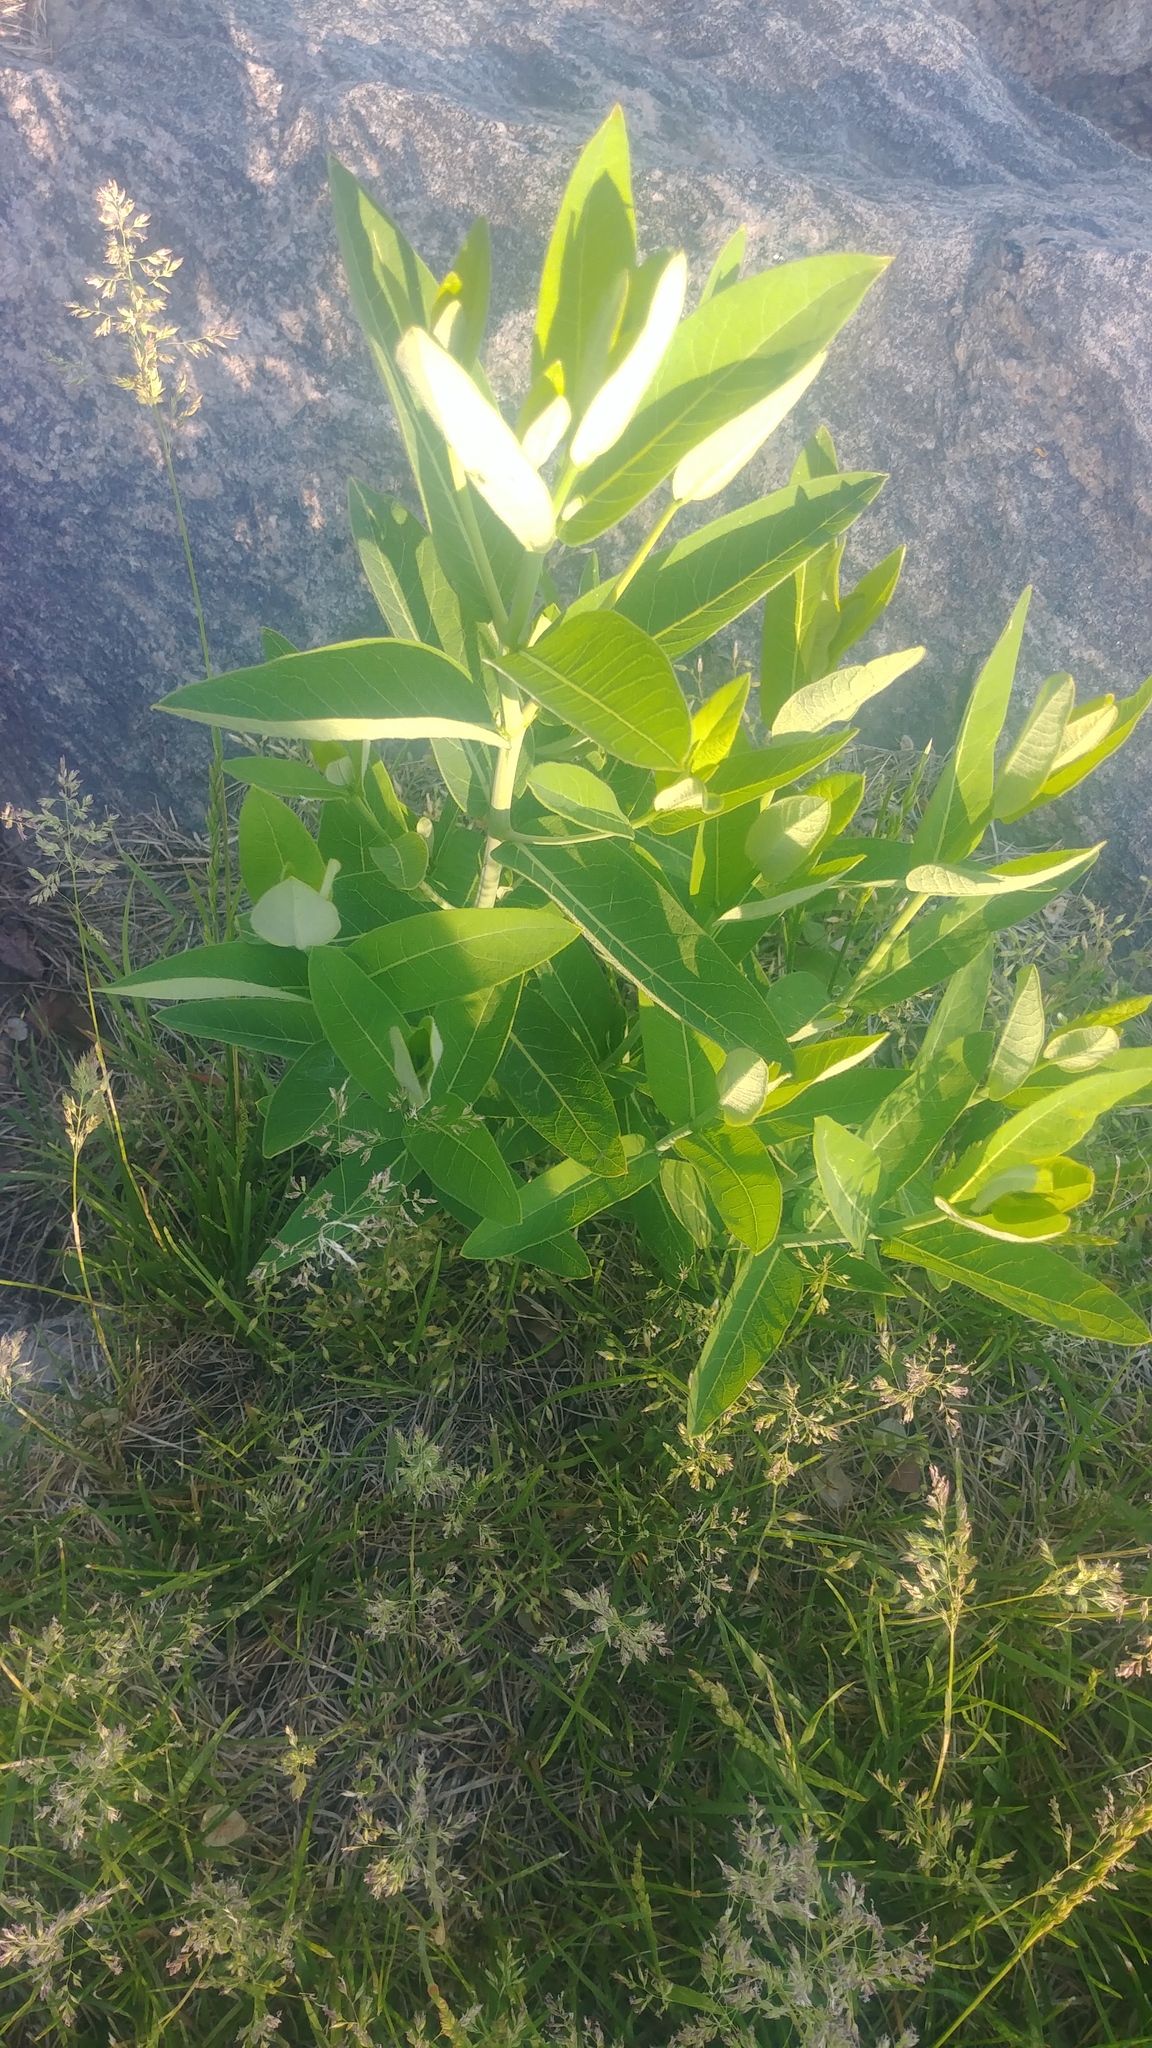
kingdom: Plantae
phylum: Tracheophyta
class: Magnoliopsida
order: Gentianales
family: Apocynaceae
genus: Apocynum
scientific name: Apocynum cannabinum
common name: Hemp dogbane
